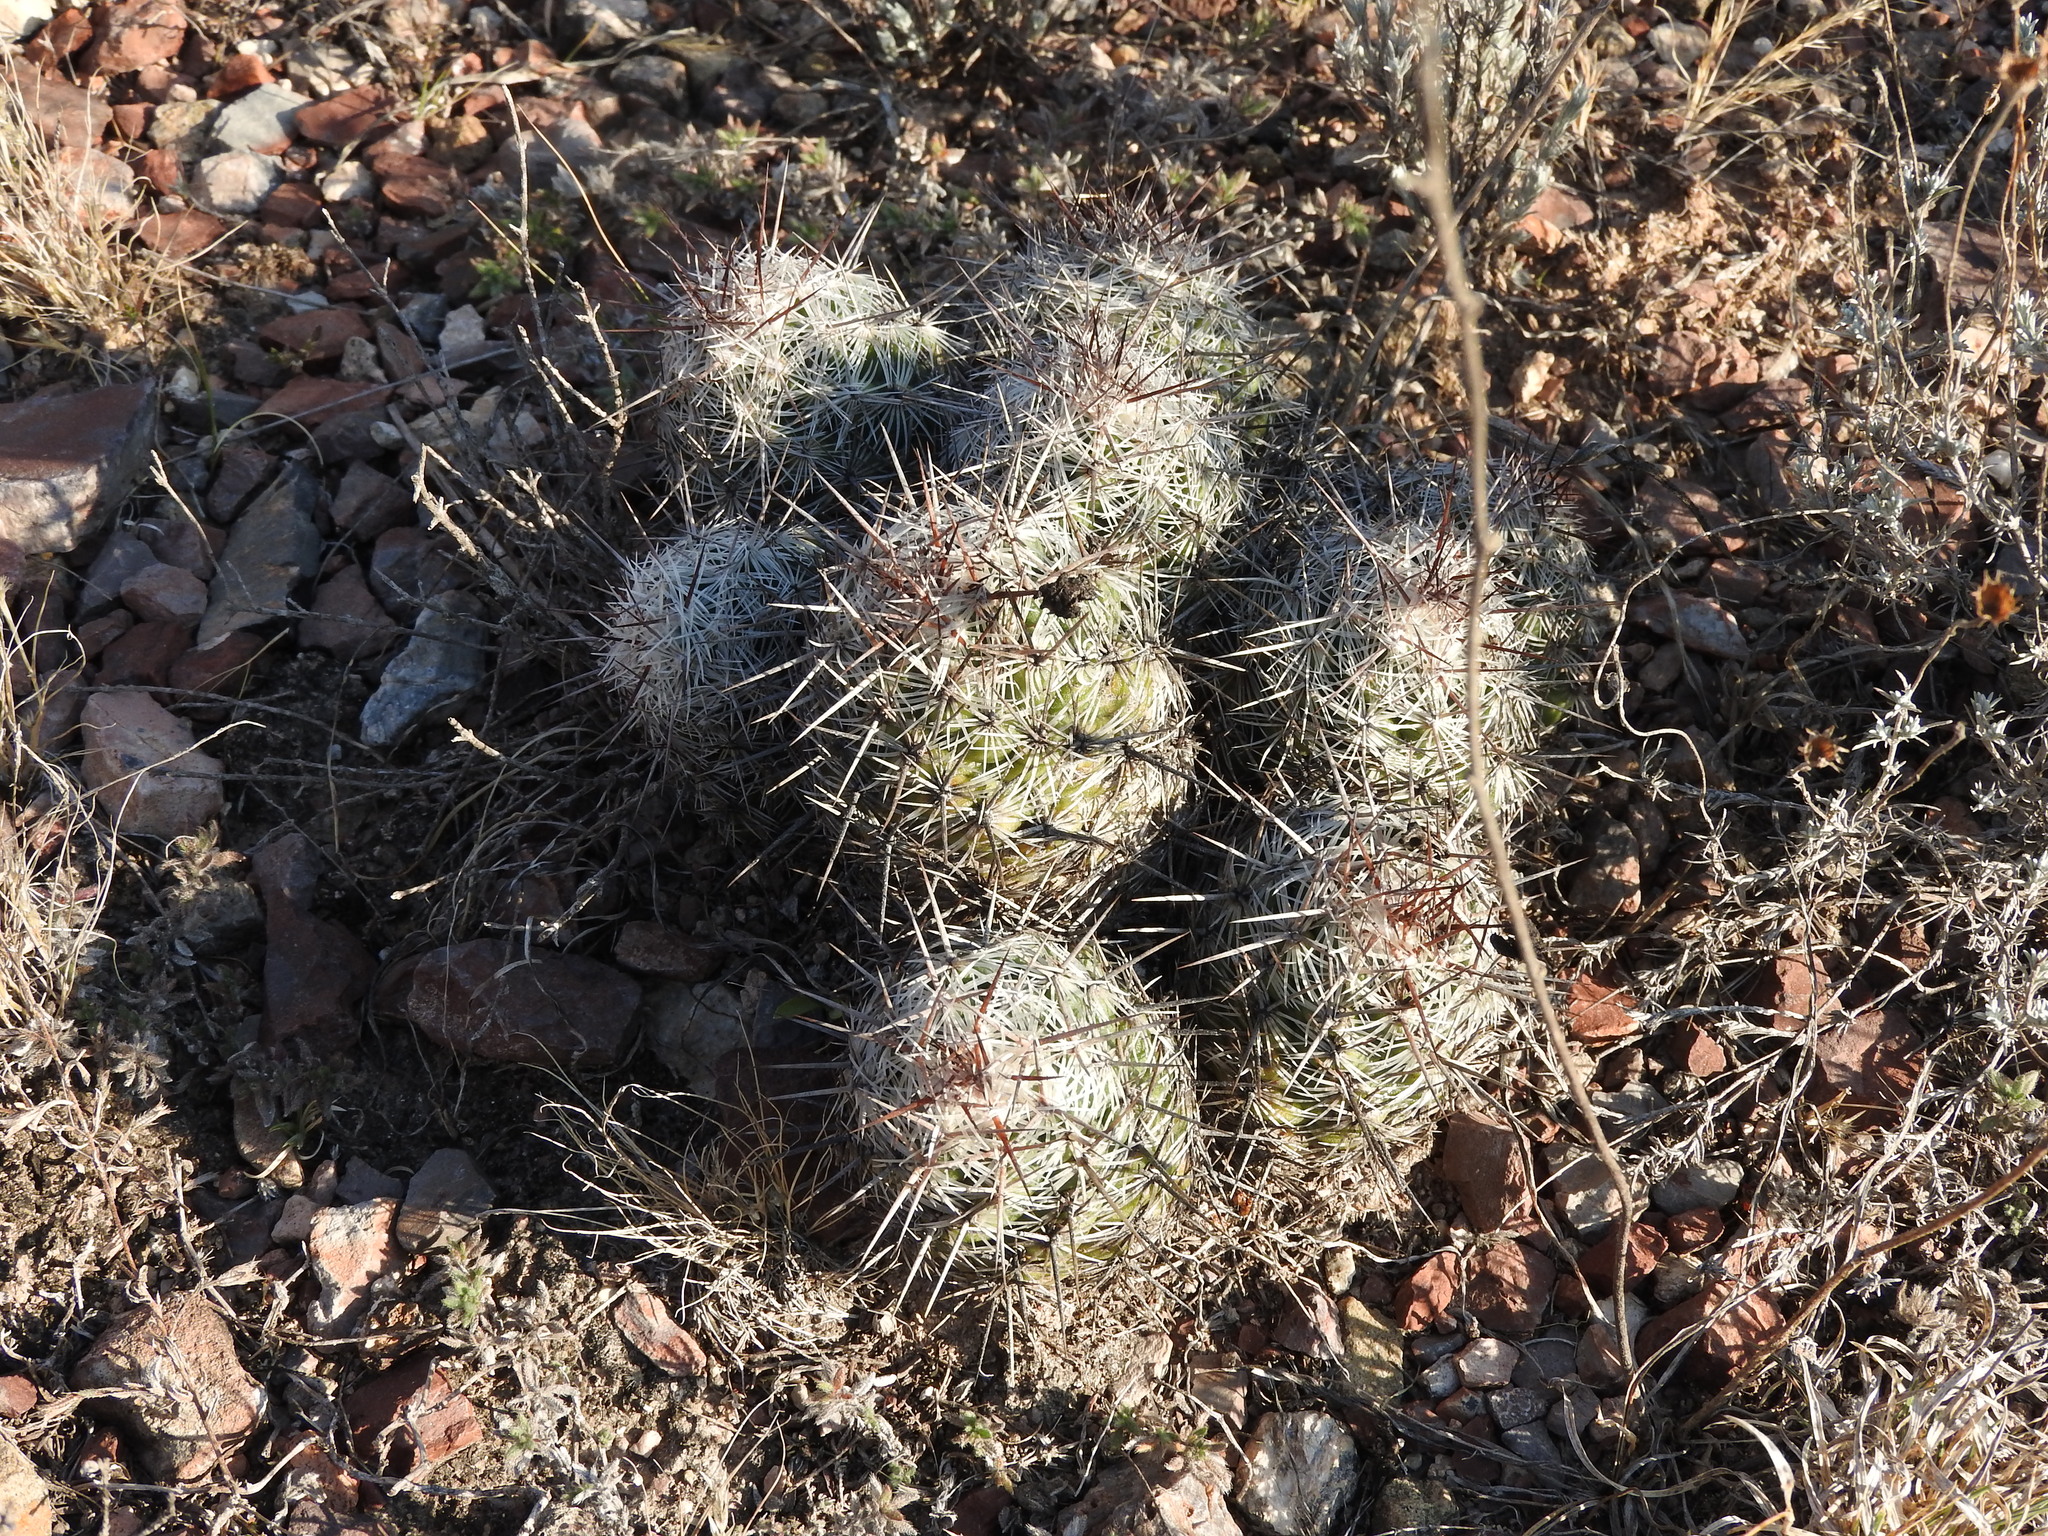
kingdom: Plantae
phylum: Tracheophyta
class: Magnoliopsida
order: Caryophyllales
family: Cactaceae
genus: Cochemiea
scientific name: Cochemiea conoidea
